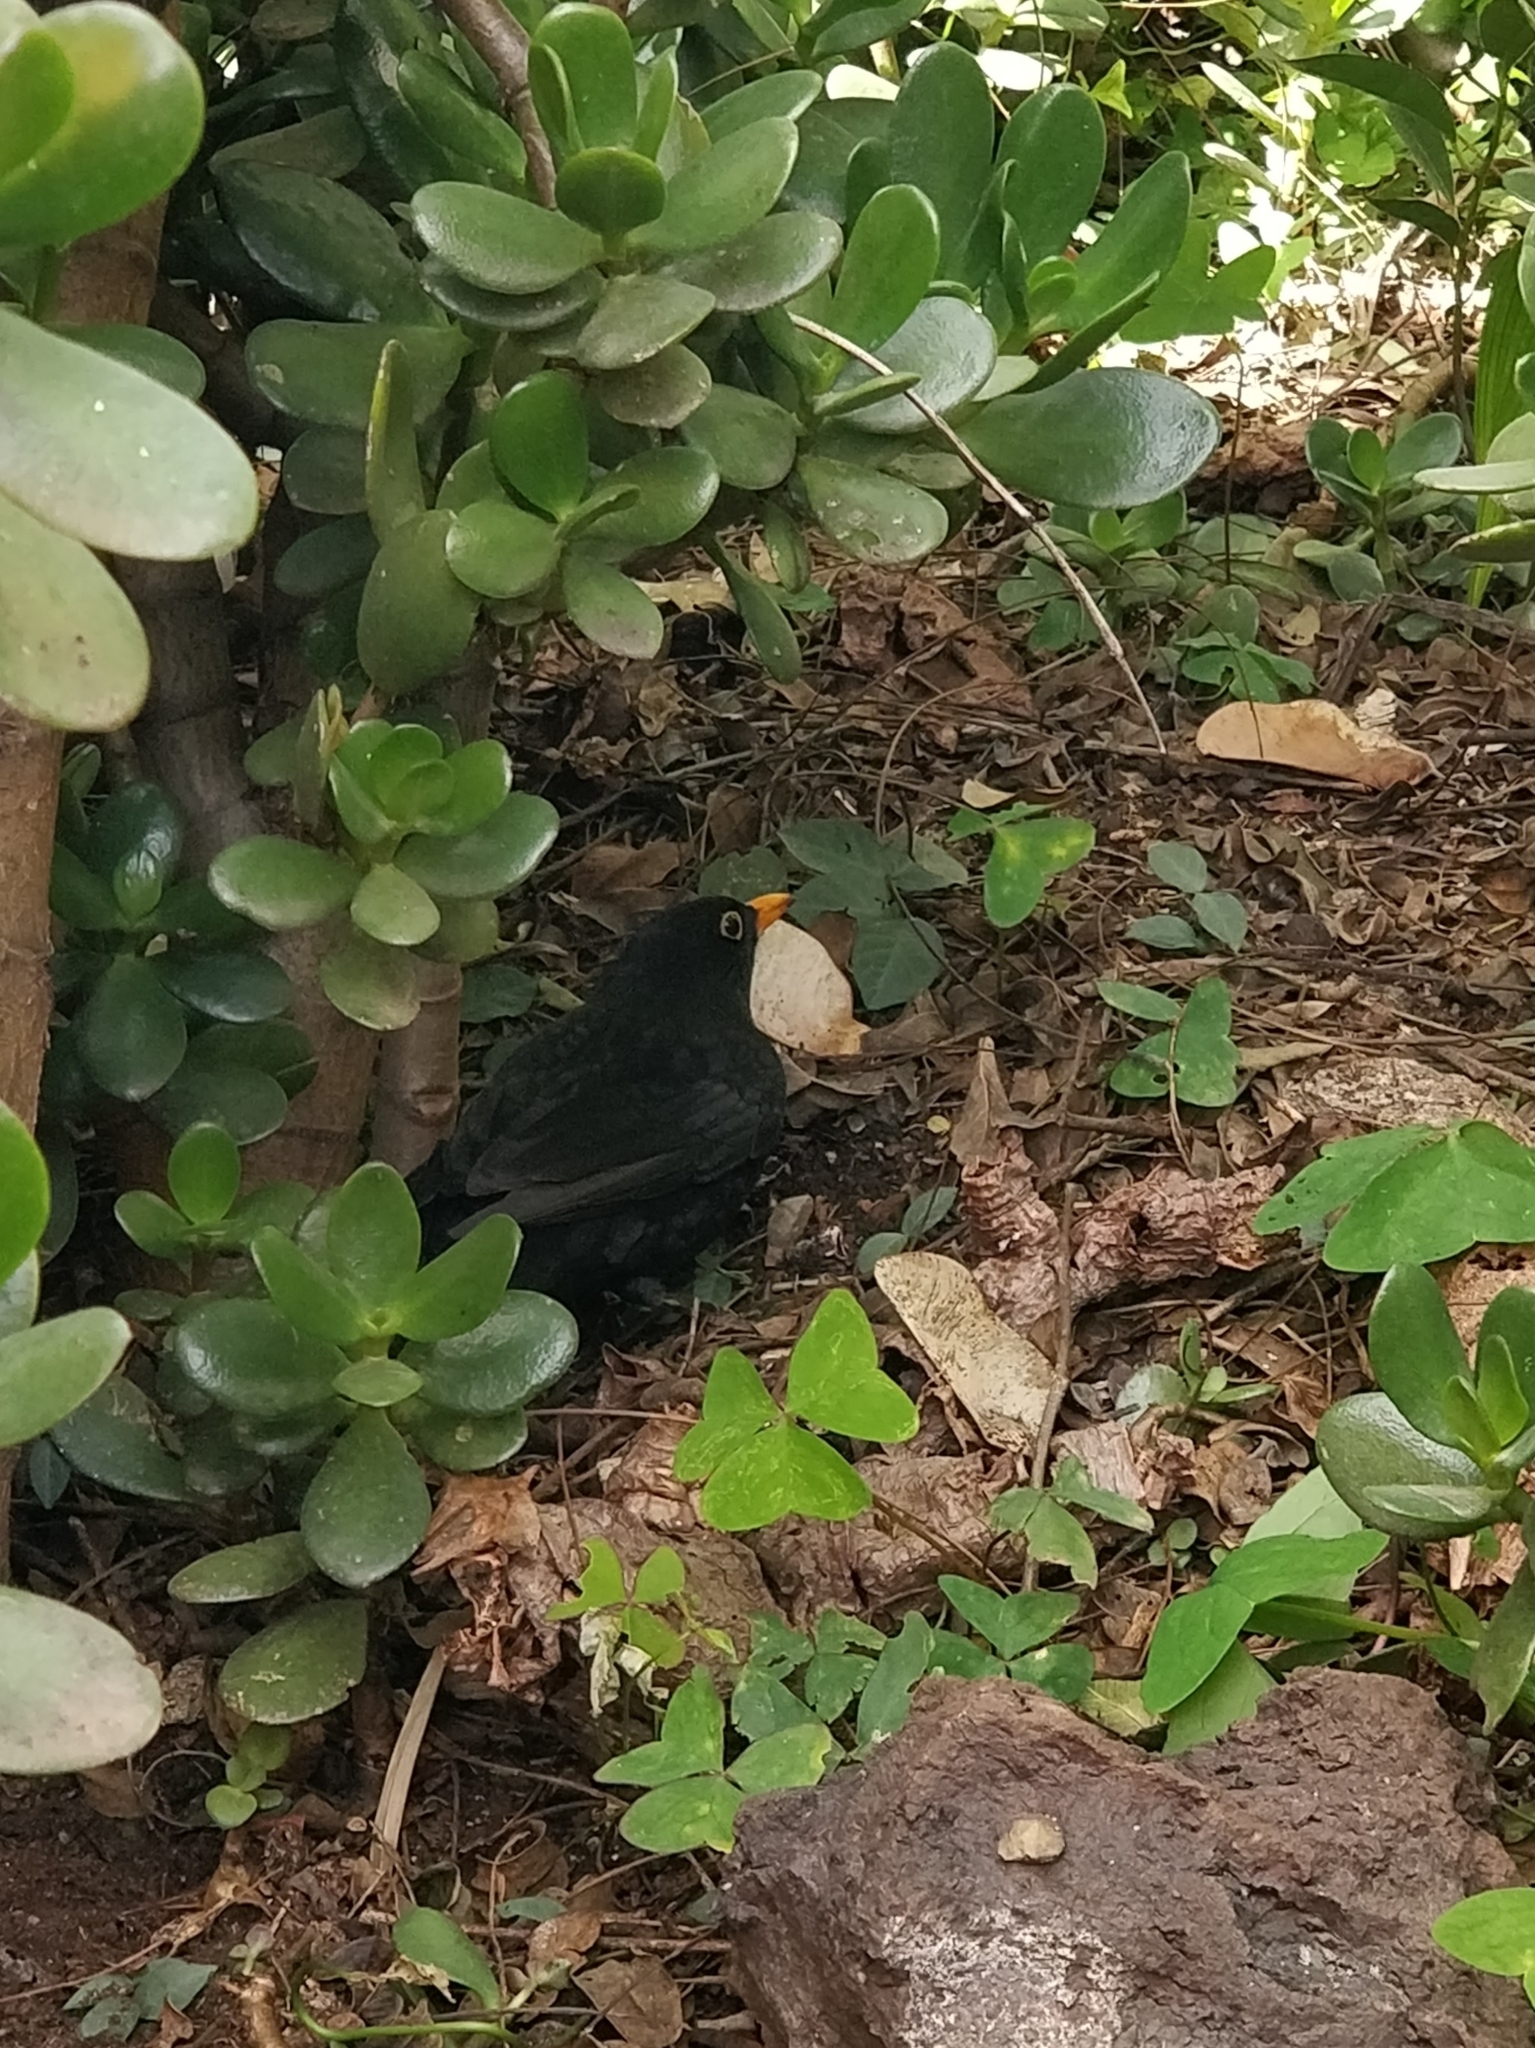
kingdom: Animalia
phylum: Chordata
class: Aves
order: Passeriformes
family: Turdidae
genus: Turdus
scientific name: Turdus merula
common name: Common blackbird
